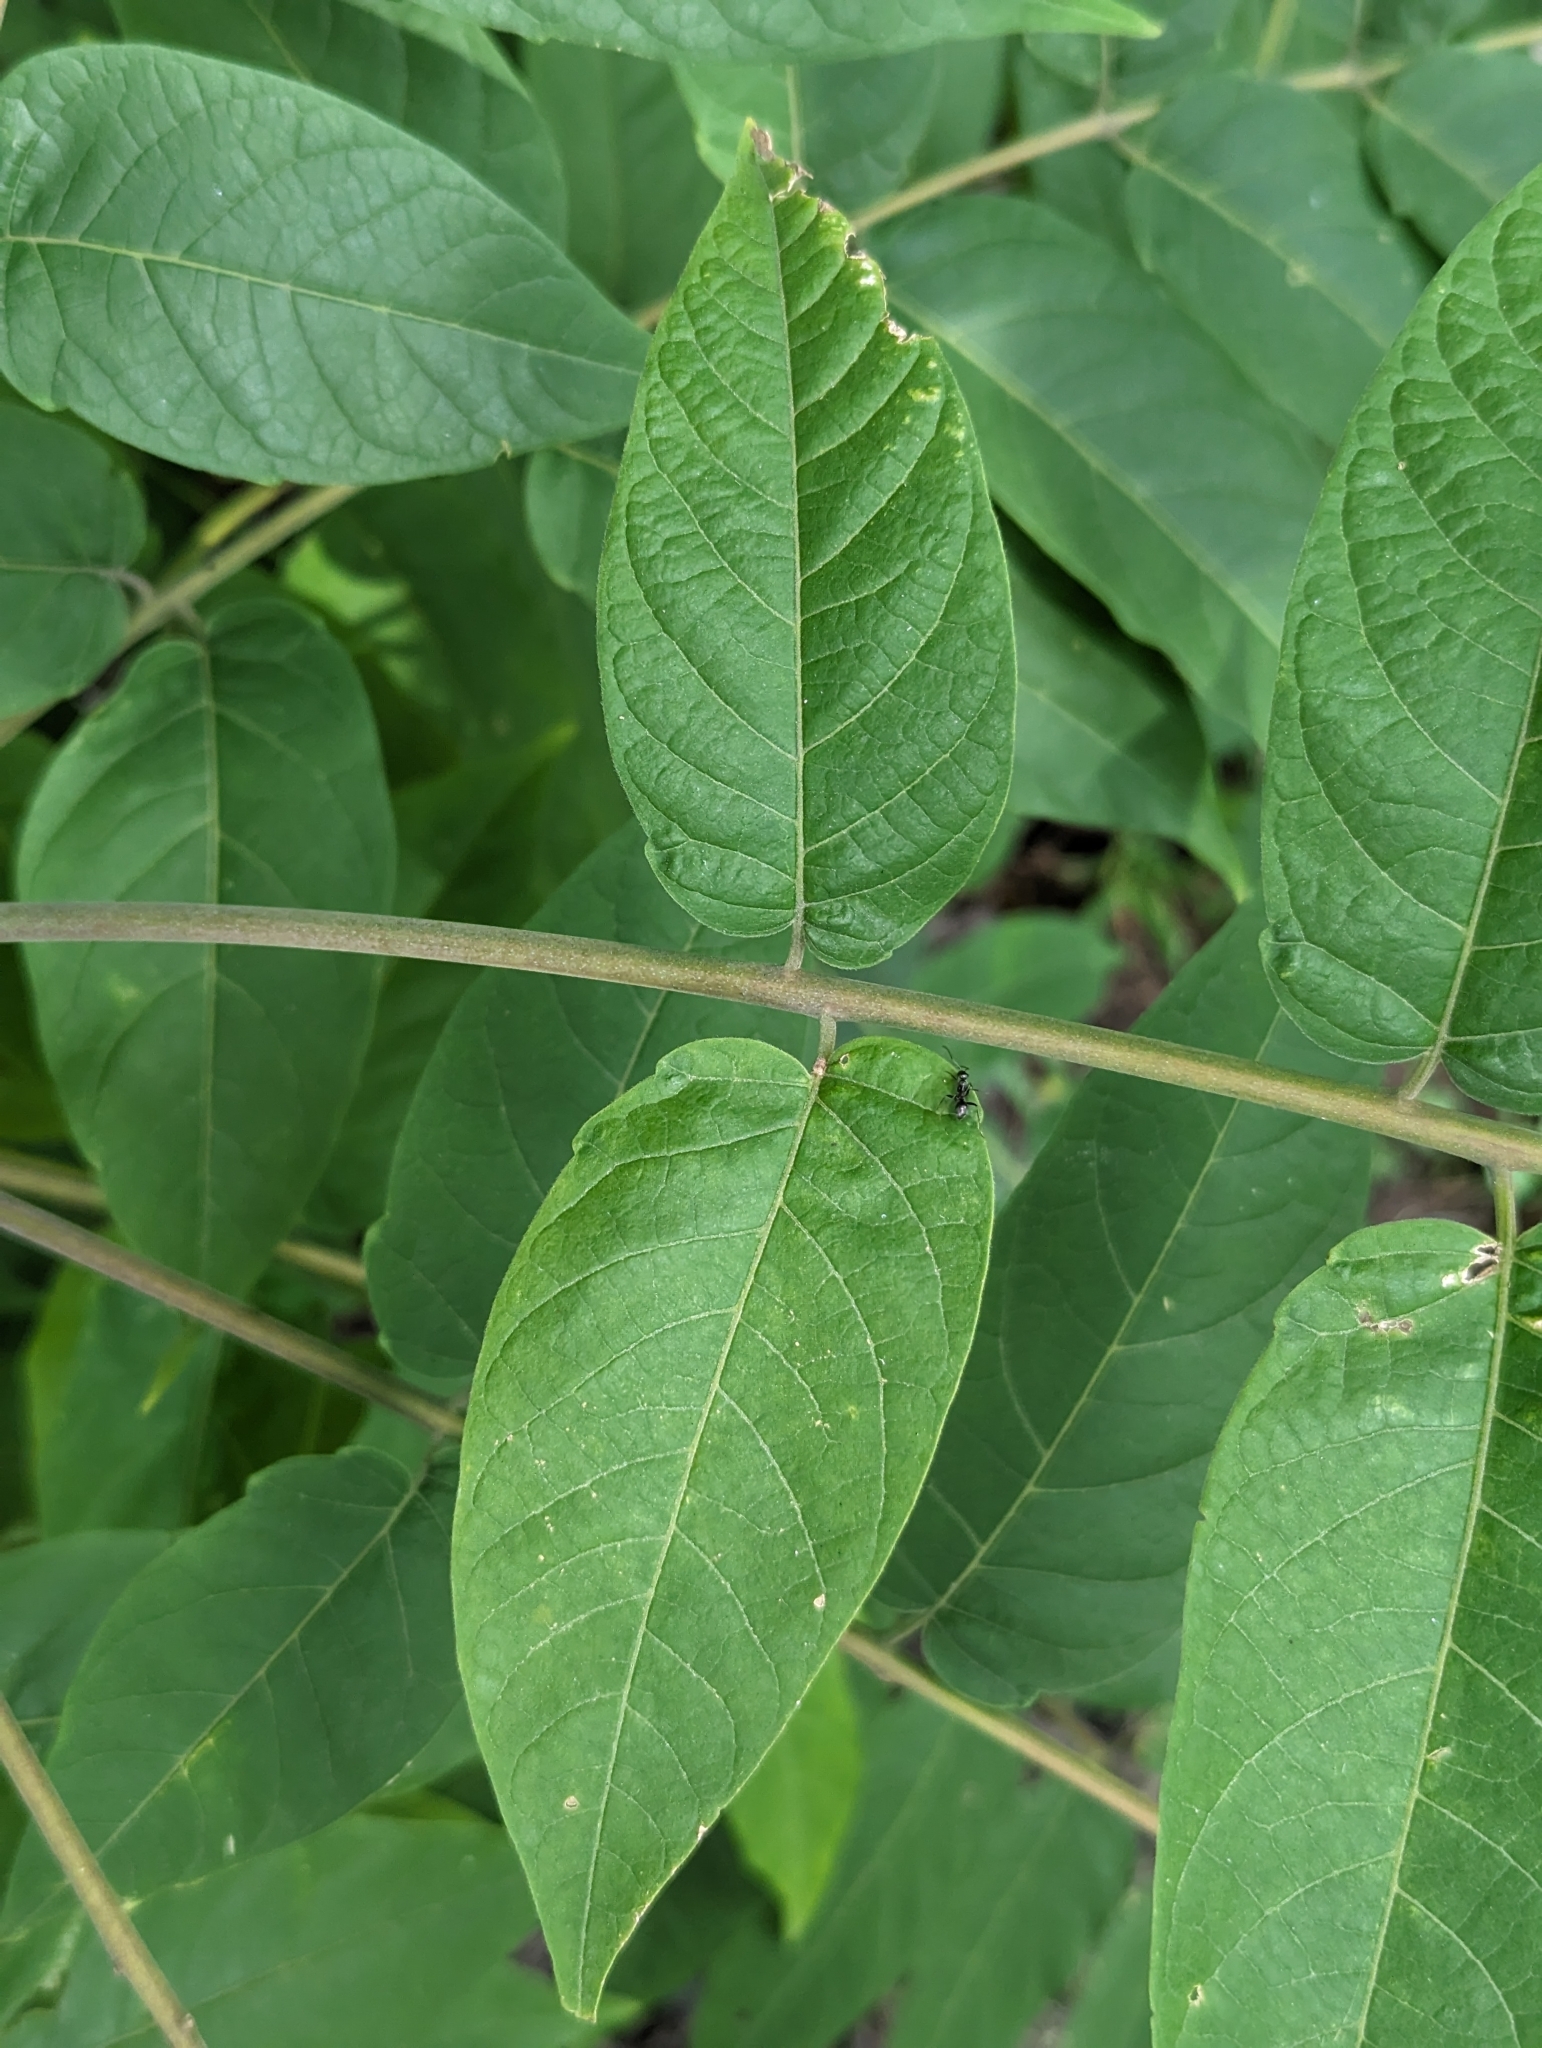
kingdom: Plantae
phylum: Tracheophyta
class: Magnoliopsida
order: Sapindales
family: Simaroubaceae
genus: Ailanthus
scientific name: Ailanthus altissima
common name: Tree-of-heaven
